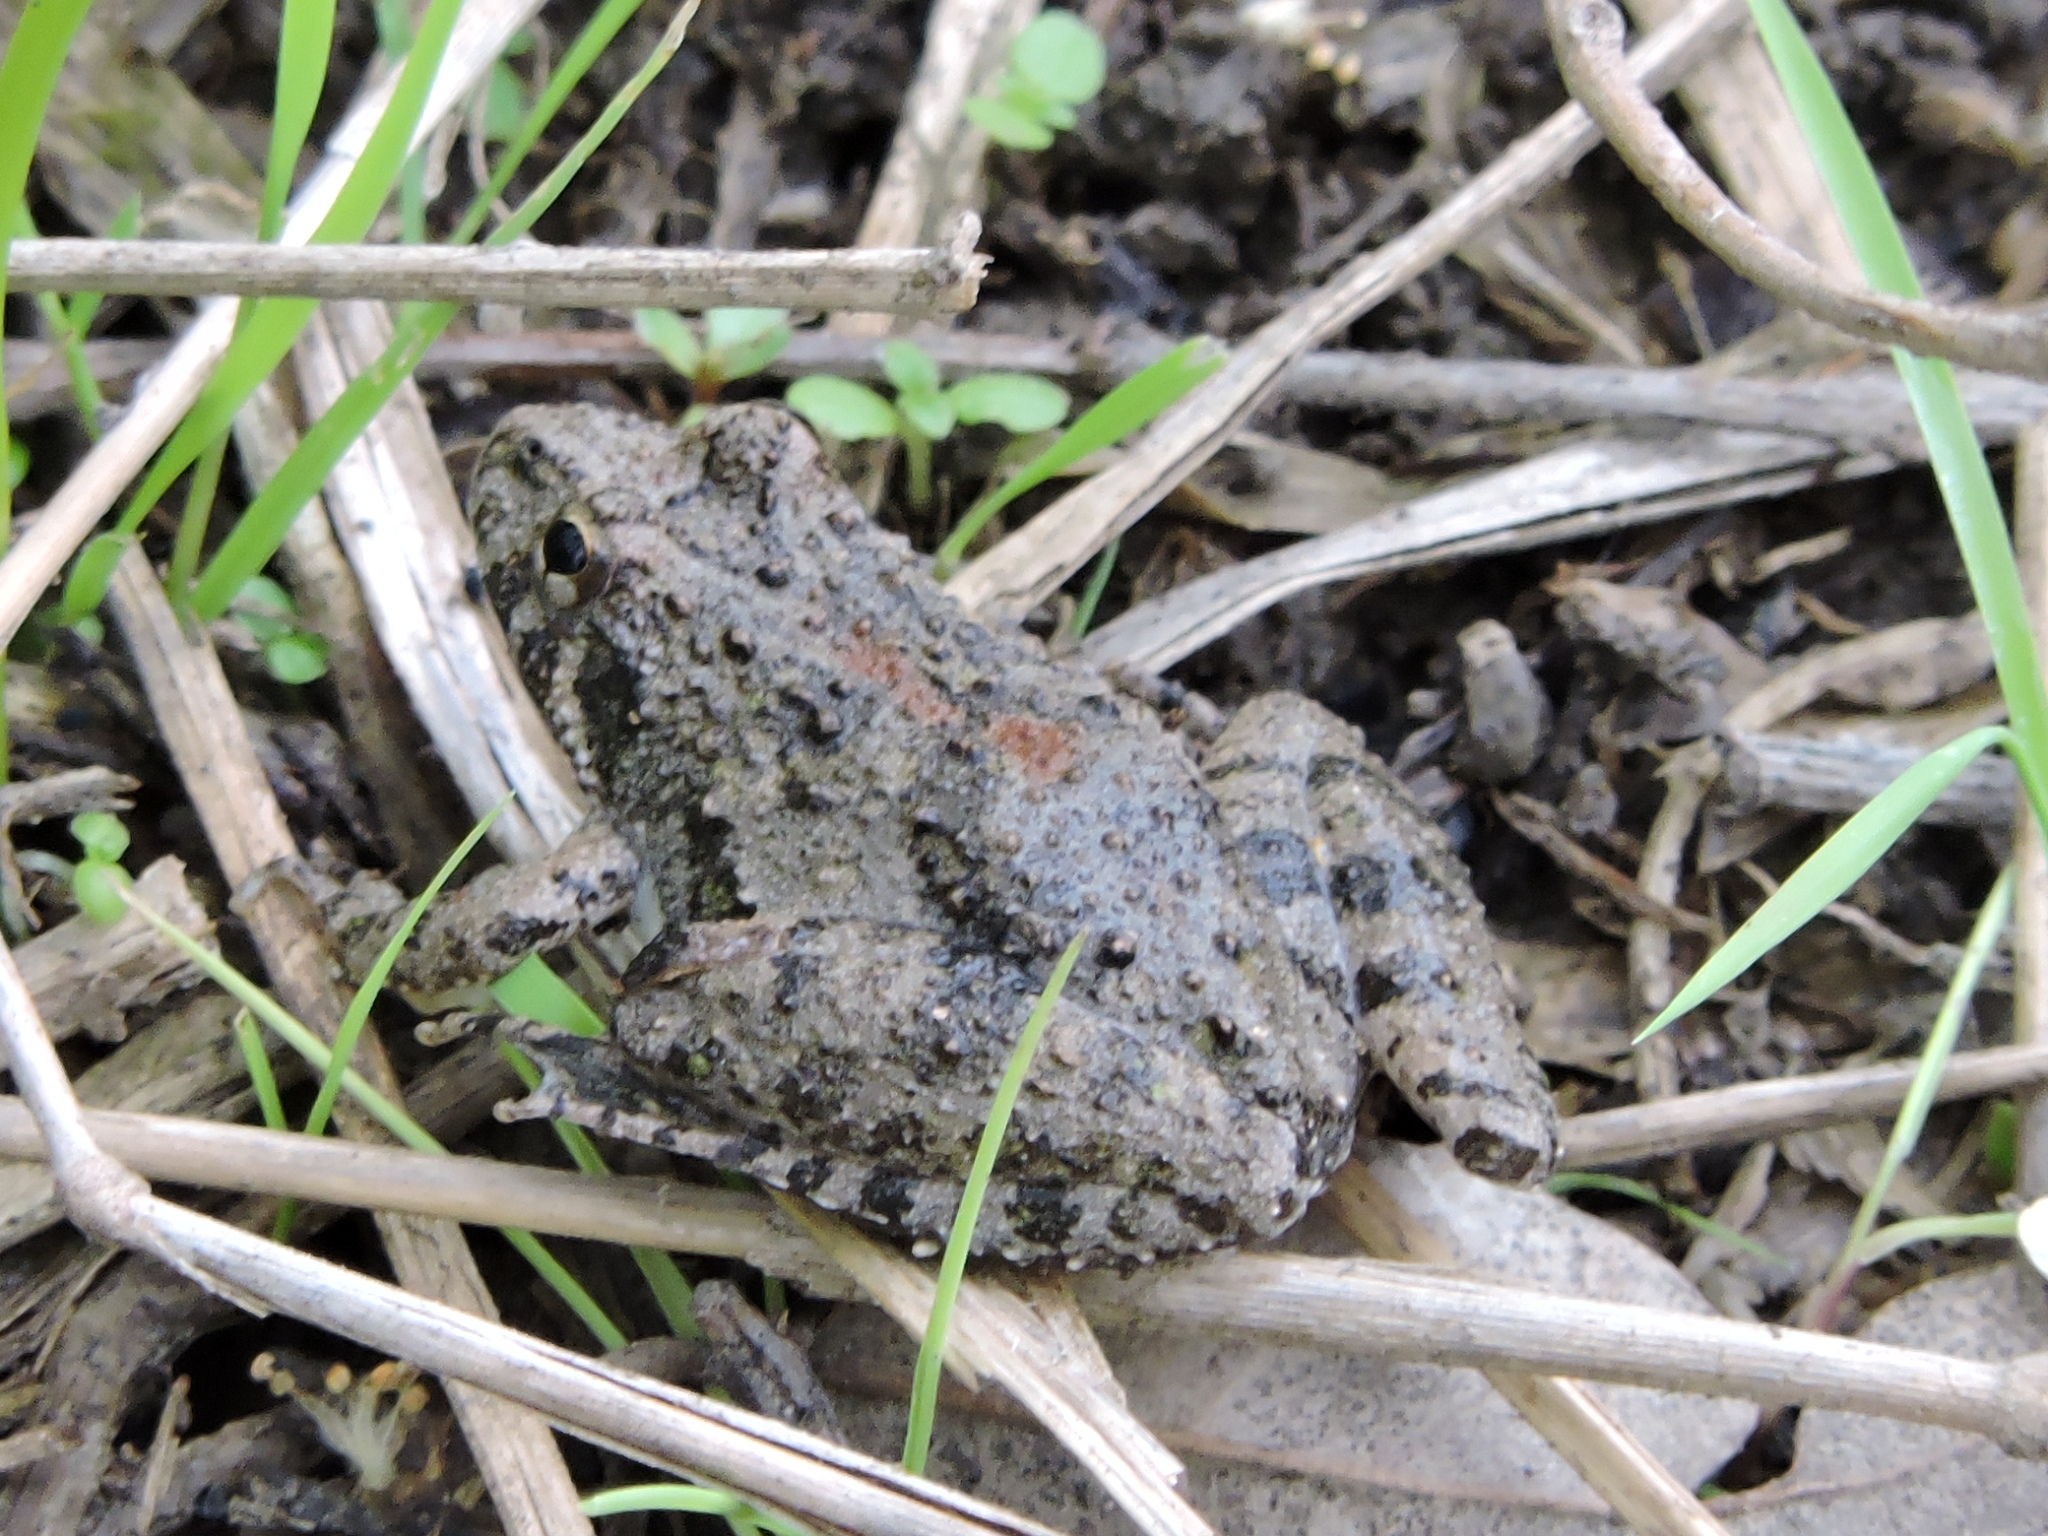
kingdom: Animalia
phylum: Chordata
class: Amphibia
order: Anura
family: Hylidae
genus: Acris
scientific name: Acris blanchardi
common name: Blanchard's cricket frog
